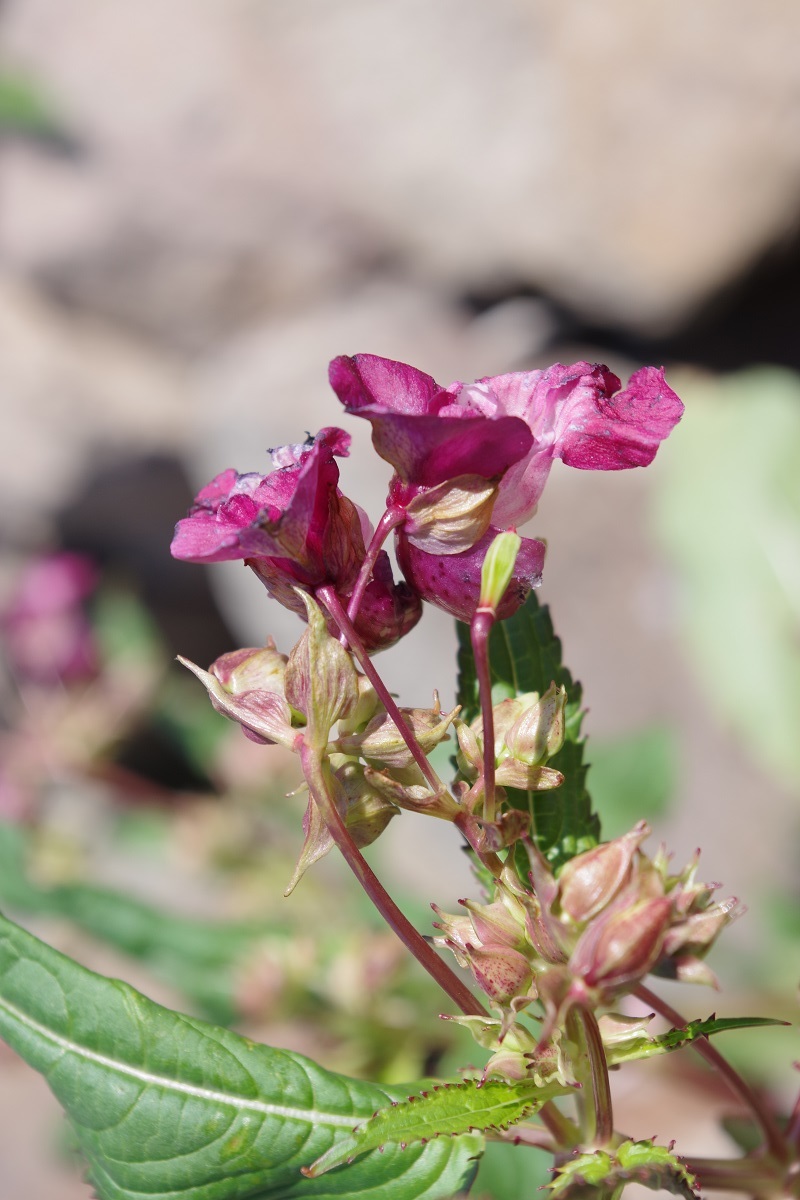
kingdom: Plantae
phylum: Tracheophyta
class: Magnoliopsida
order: Ericales
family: Balsaminaceae
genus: Impatiens
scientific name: Impatiens glandulifera
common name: Himalayan balsam
